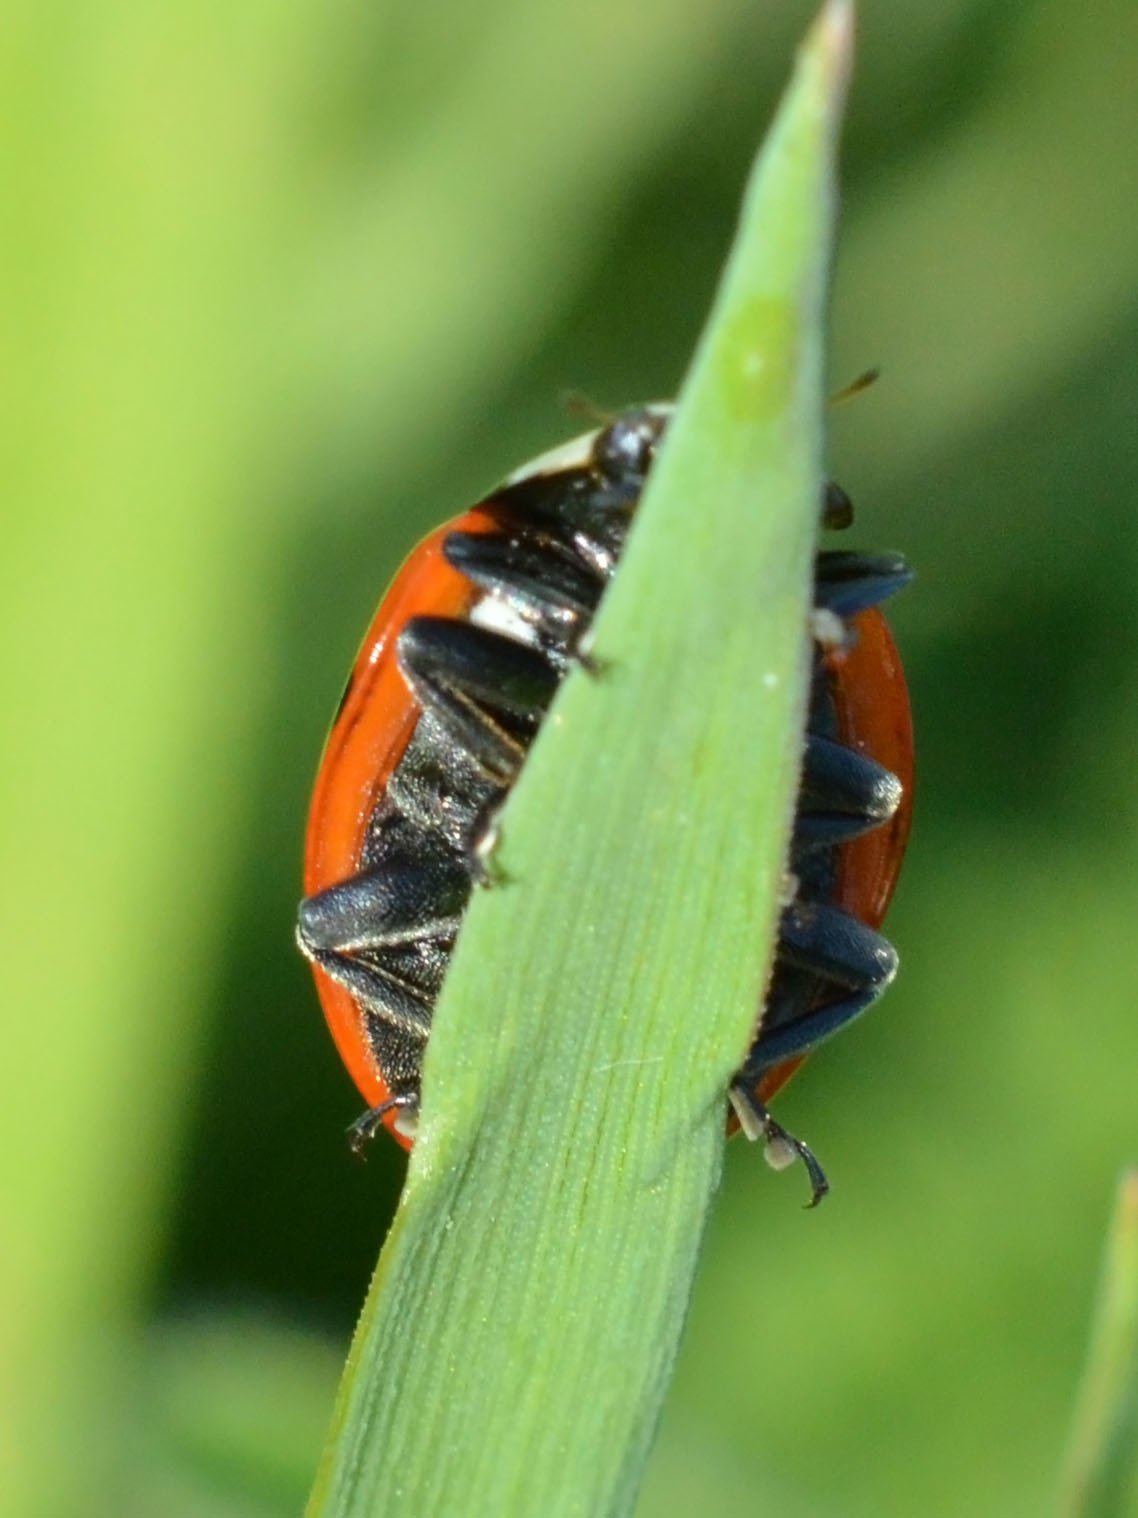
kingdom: Animalia
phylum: Arthropoda
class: Insecta
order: Coleoptera
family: Coccinellidae
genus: Coccinella
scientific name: Coccinella septempunctata
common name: Sevenspotted lady beetle
